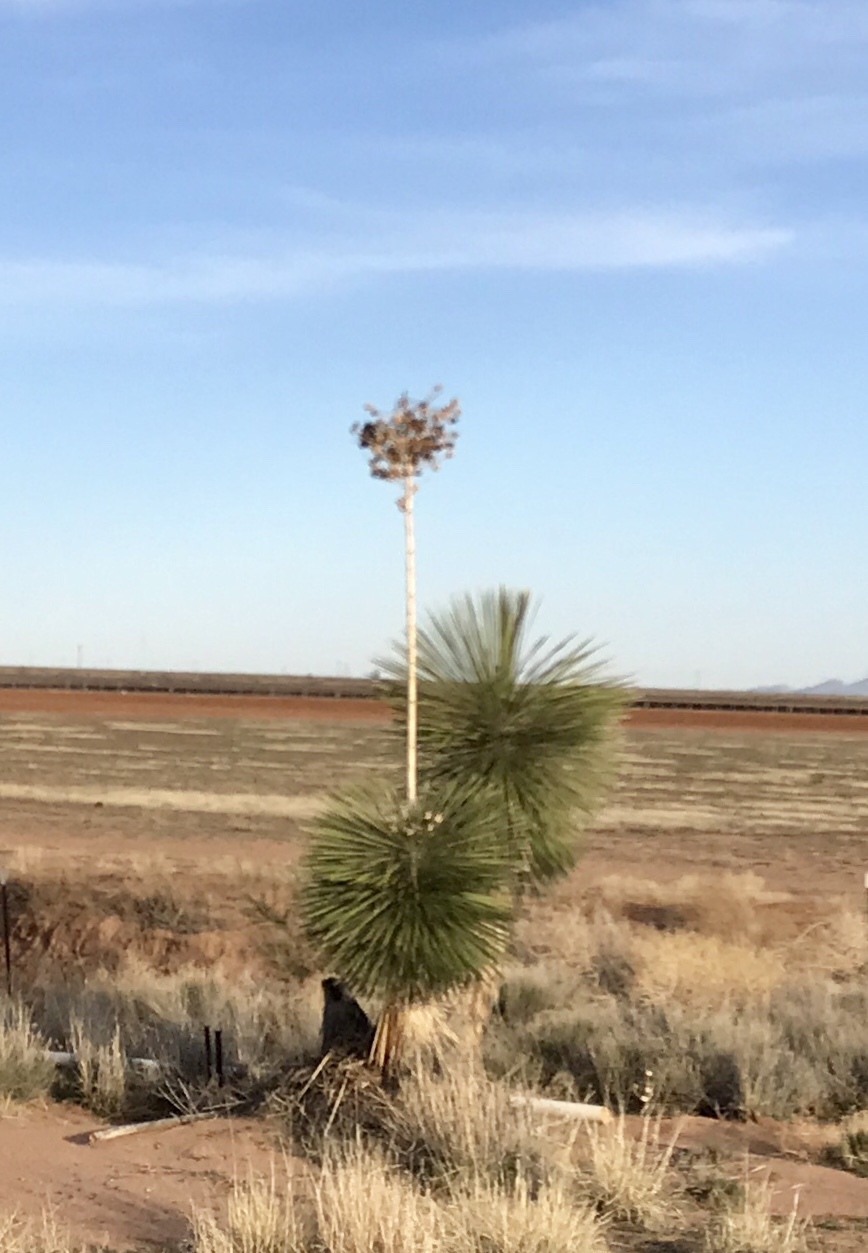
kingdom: Plantae
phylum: Tracheophyta
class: Liliopsida
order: Asparagales
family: Asparagaceae
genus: Yucca
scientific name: Yucca elata
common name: Palmella
